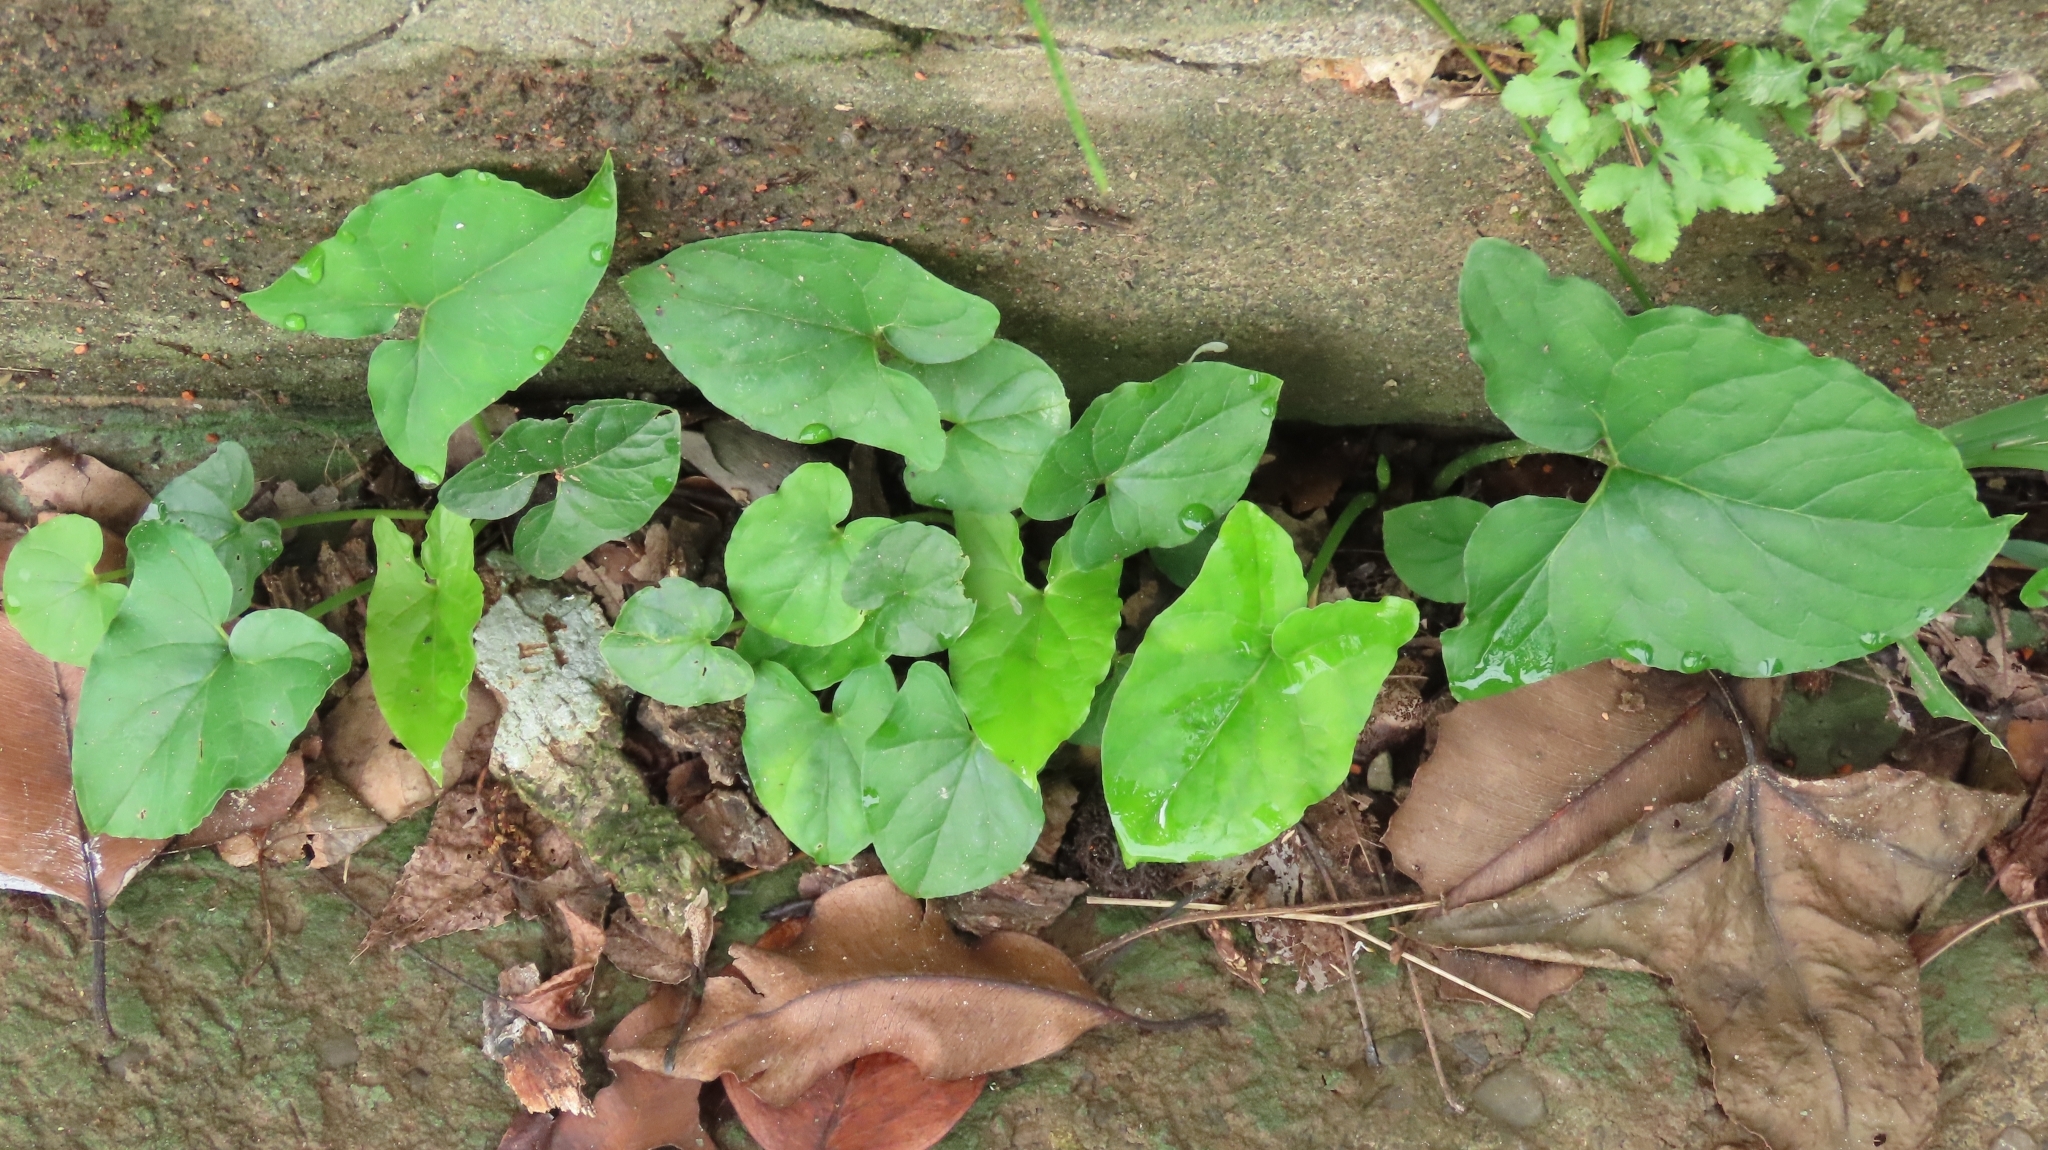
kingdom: Plantae
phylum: Tracheophyta
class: Liliopsida
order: Alismatales
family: Araceae
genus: Typhonium
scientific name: Typhonium blumei
